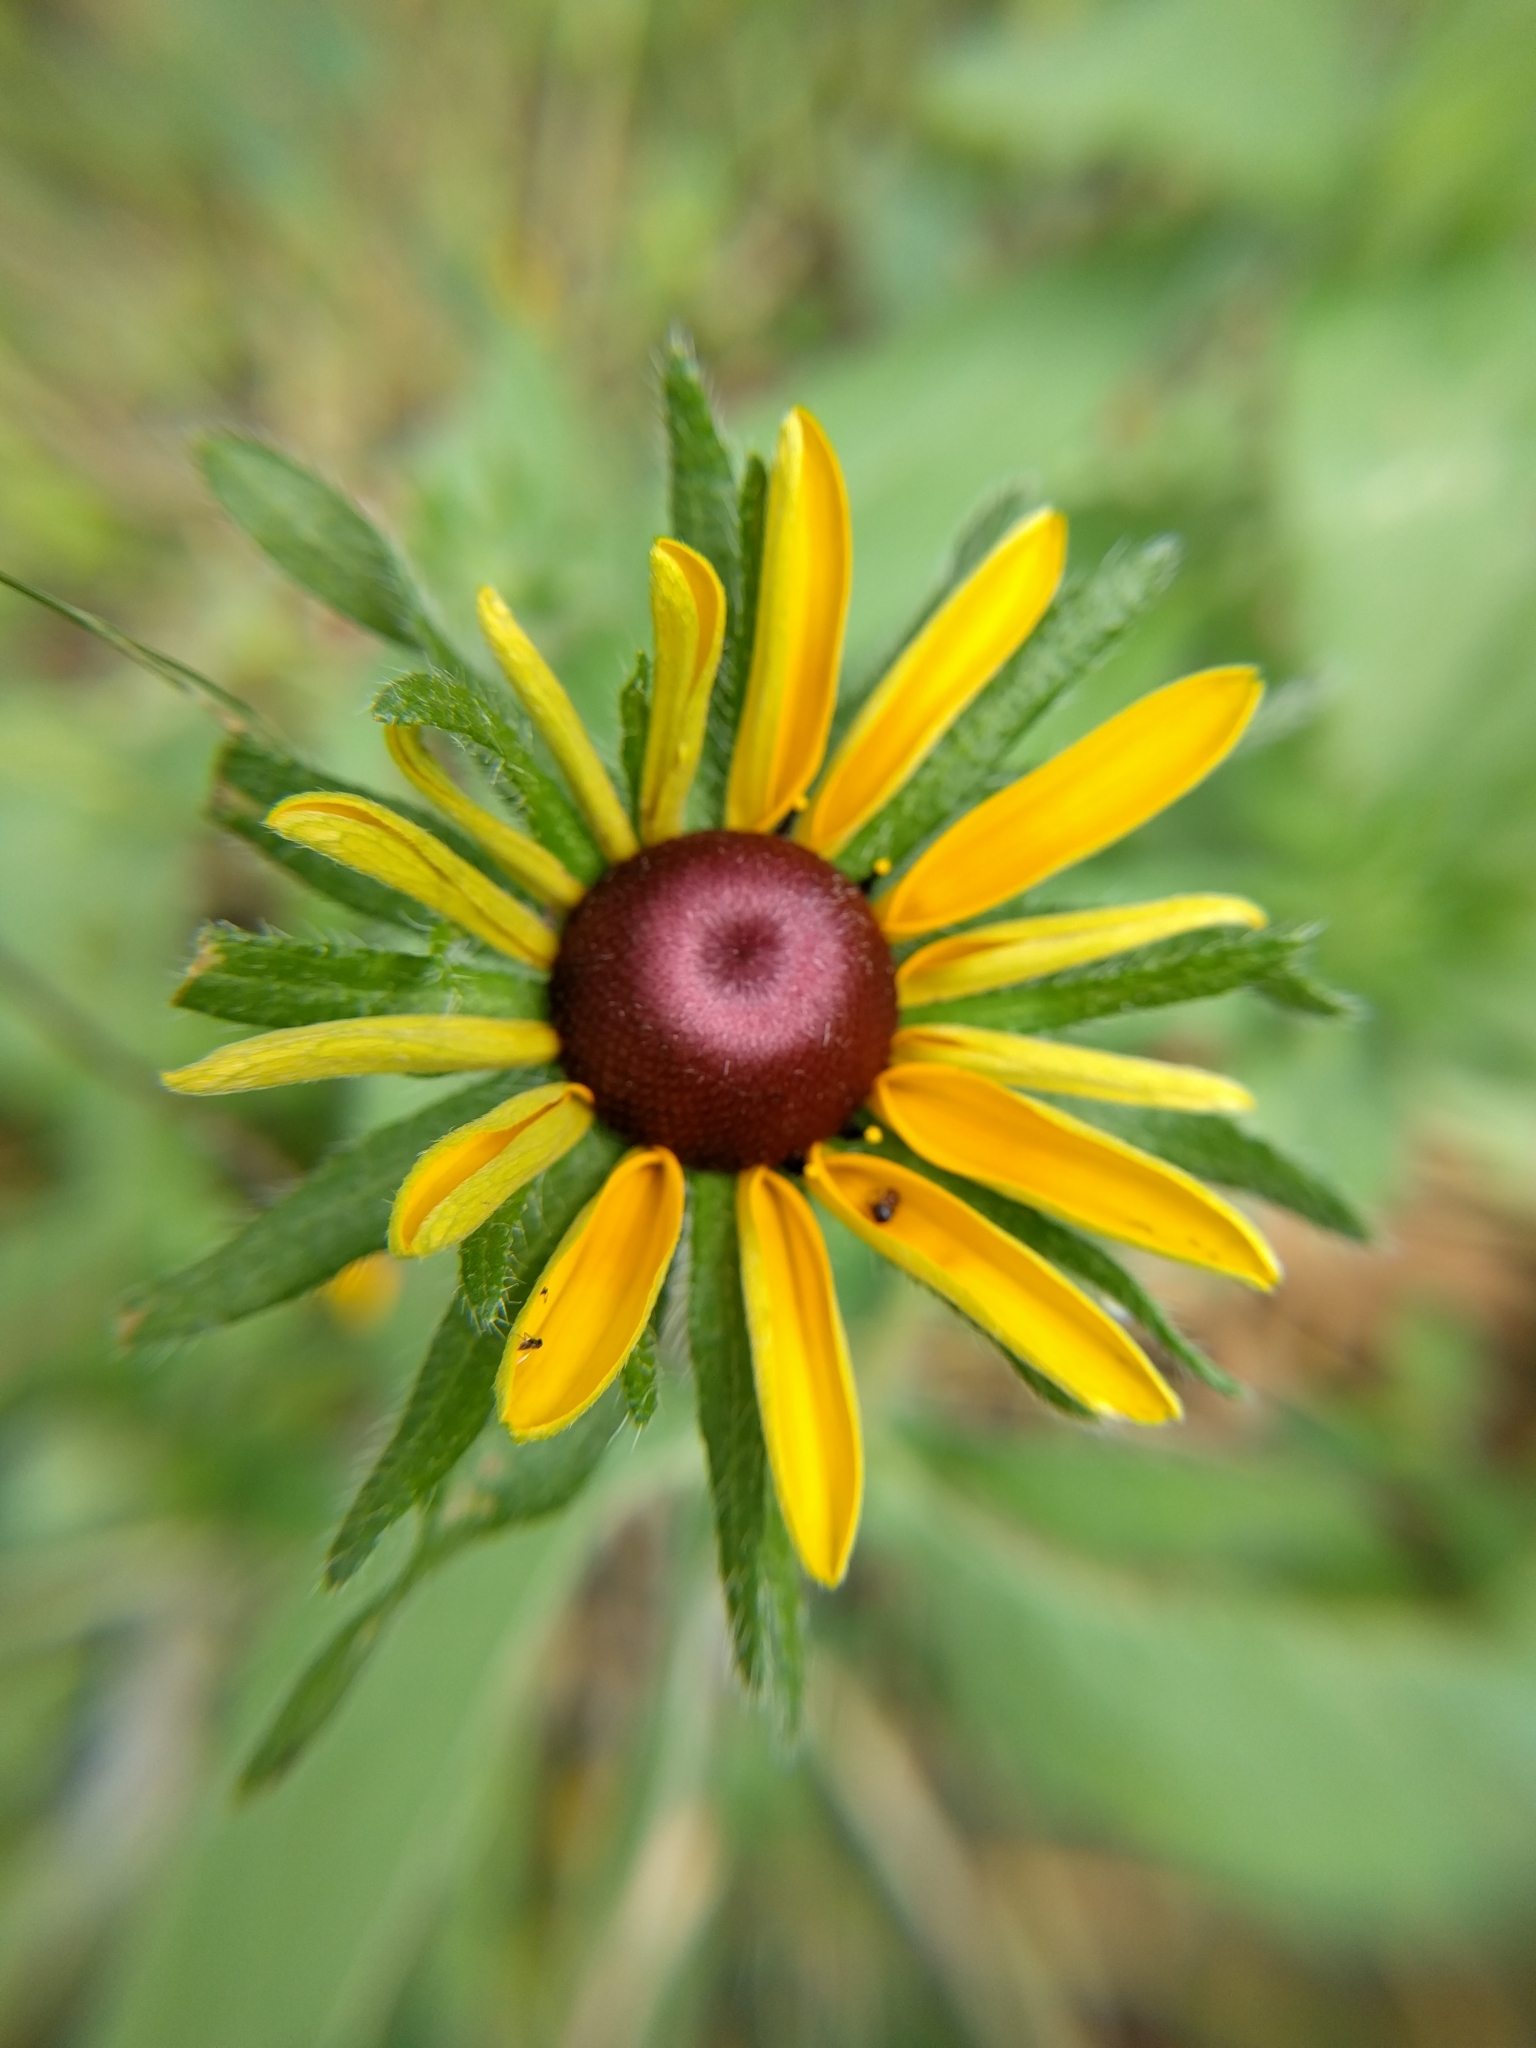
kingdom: Plantae
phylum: Tracheophyta
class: Magnoliopsida
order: Asterales
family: Asteraceae
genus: Rudbeckia
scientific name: Rudbeckia hirta
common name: Black-eyed-susan
